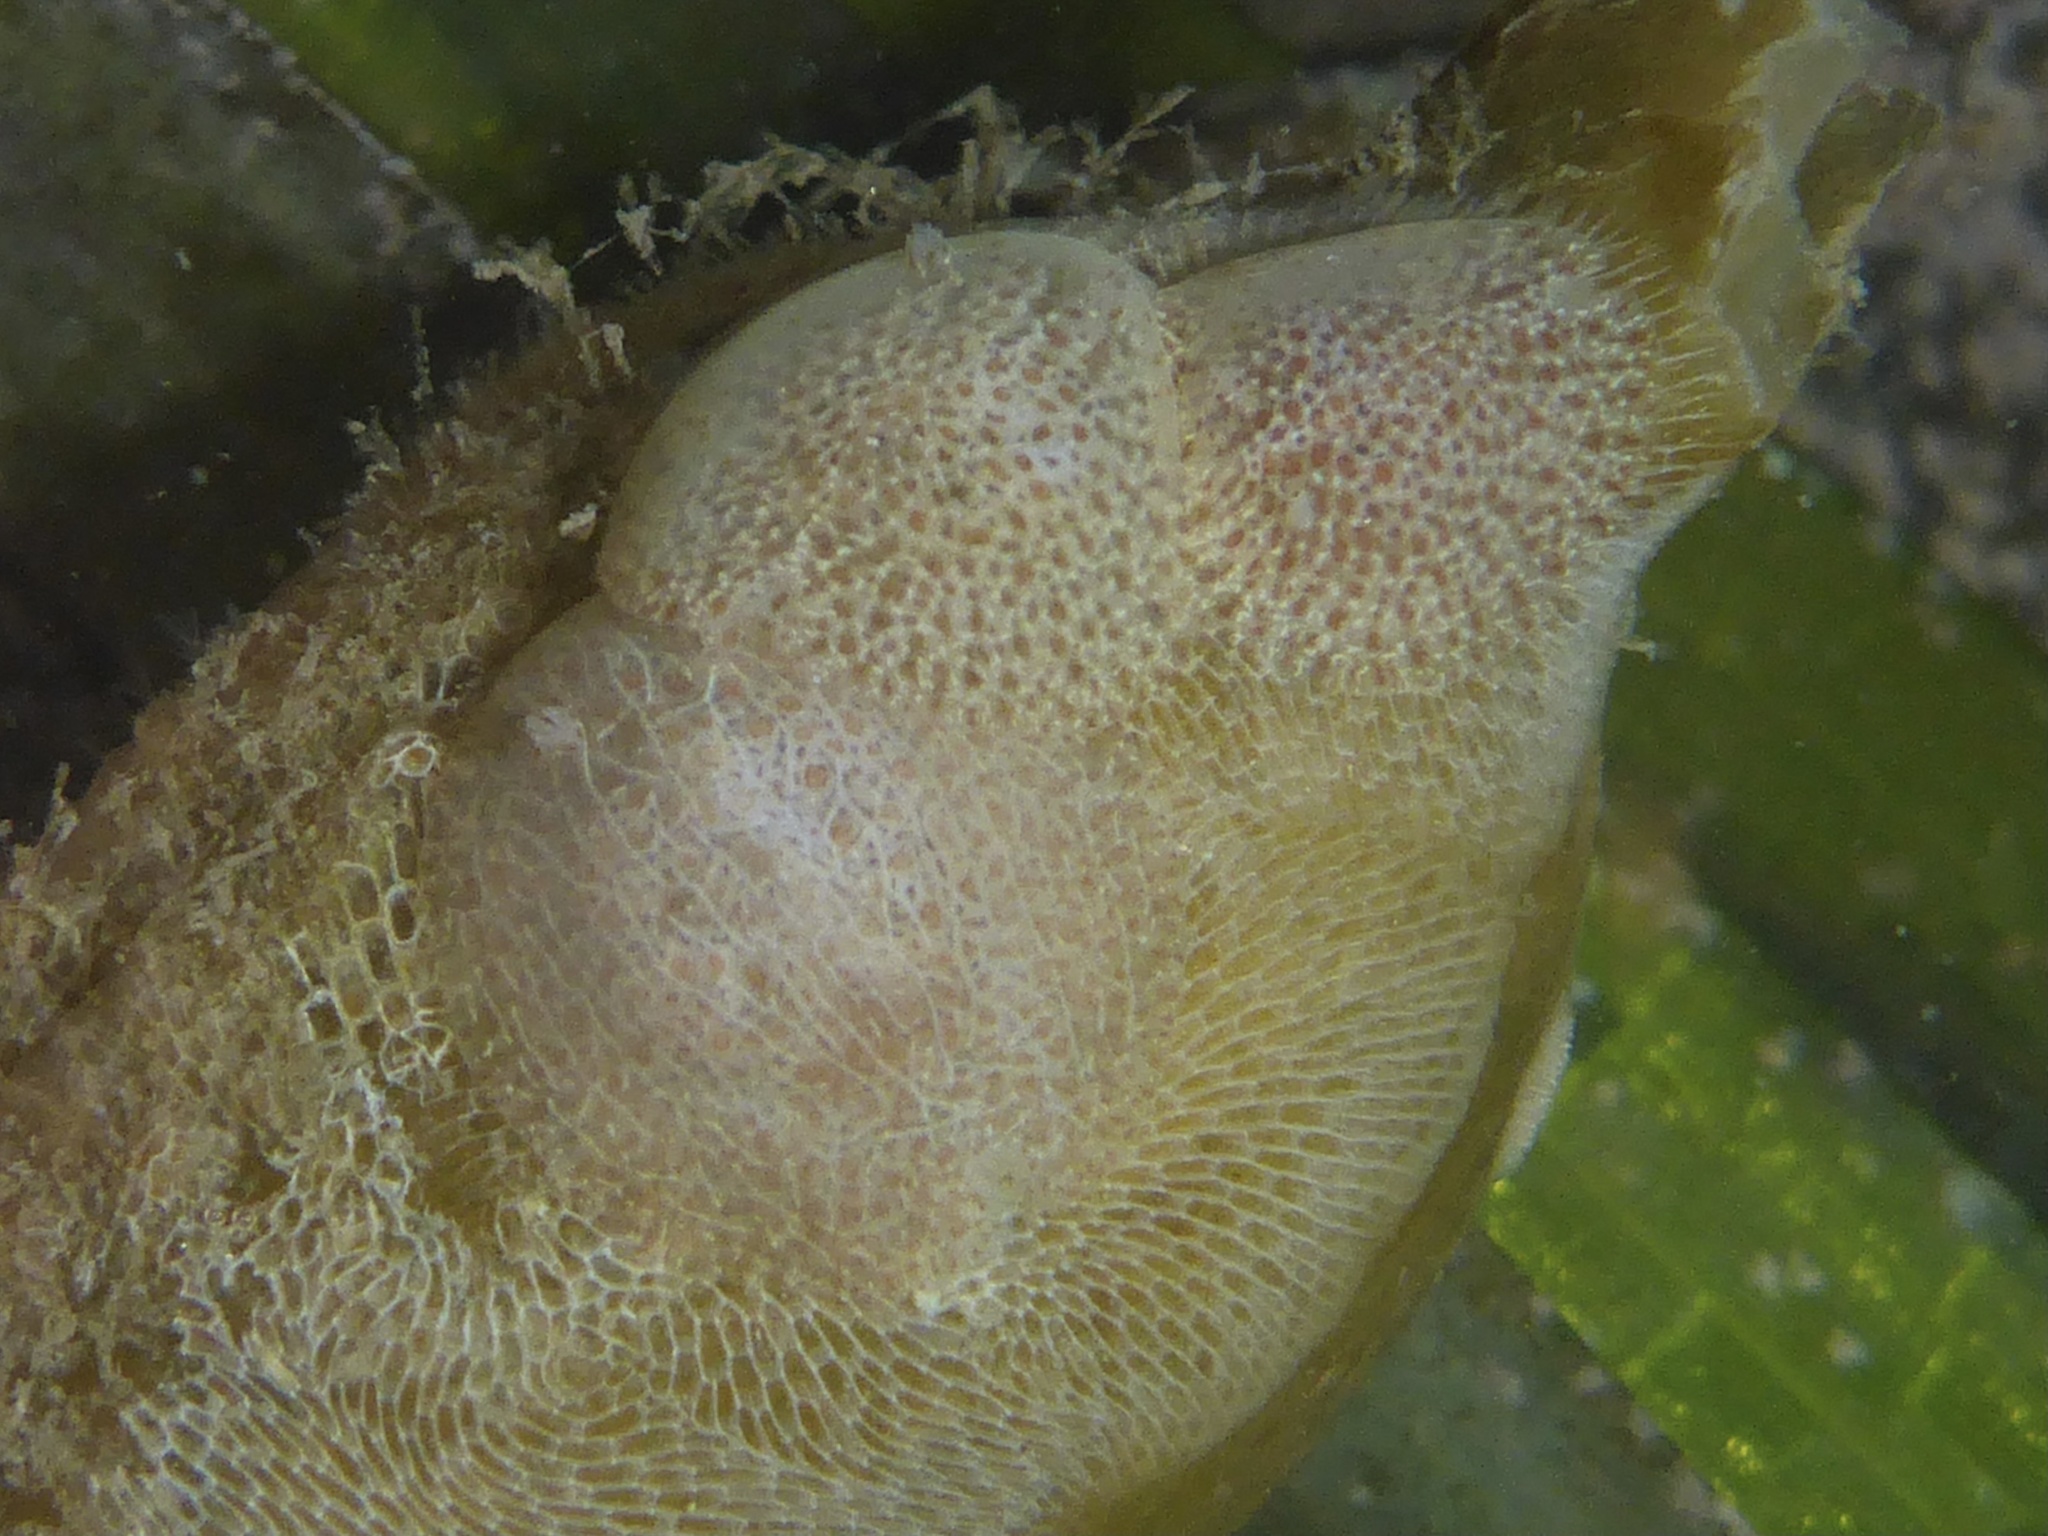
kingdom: Animalia
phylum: Mollusca
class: Gastropoda
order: Nudibranchia
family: Corambidae
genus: Corambe
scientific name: Corambe pacifica
